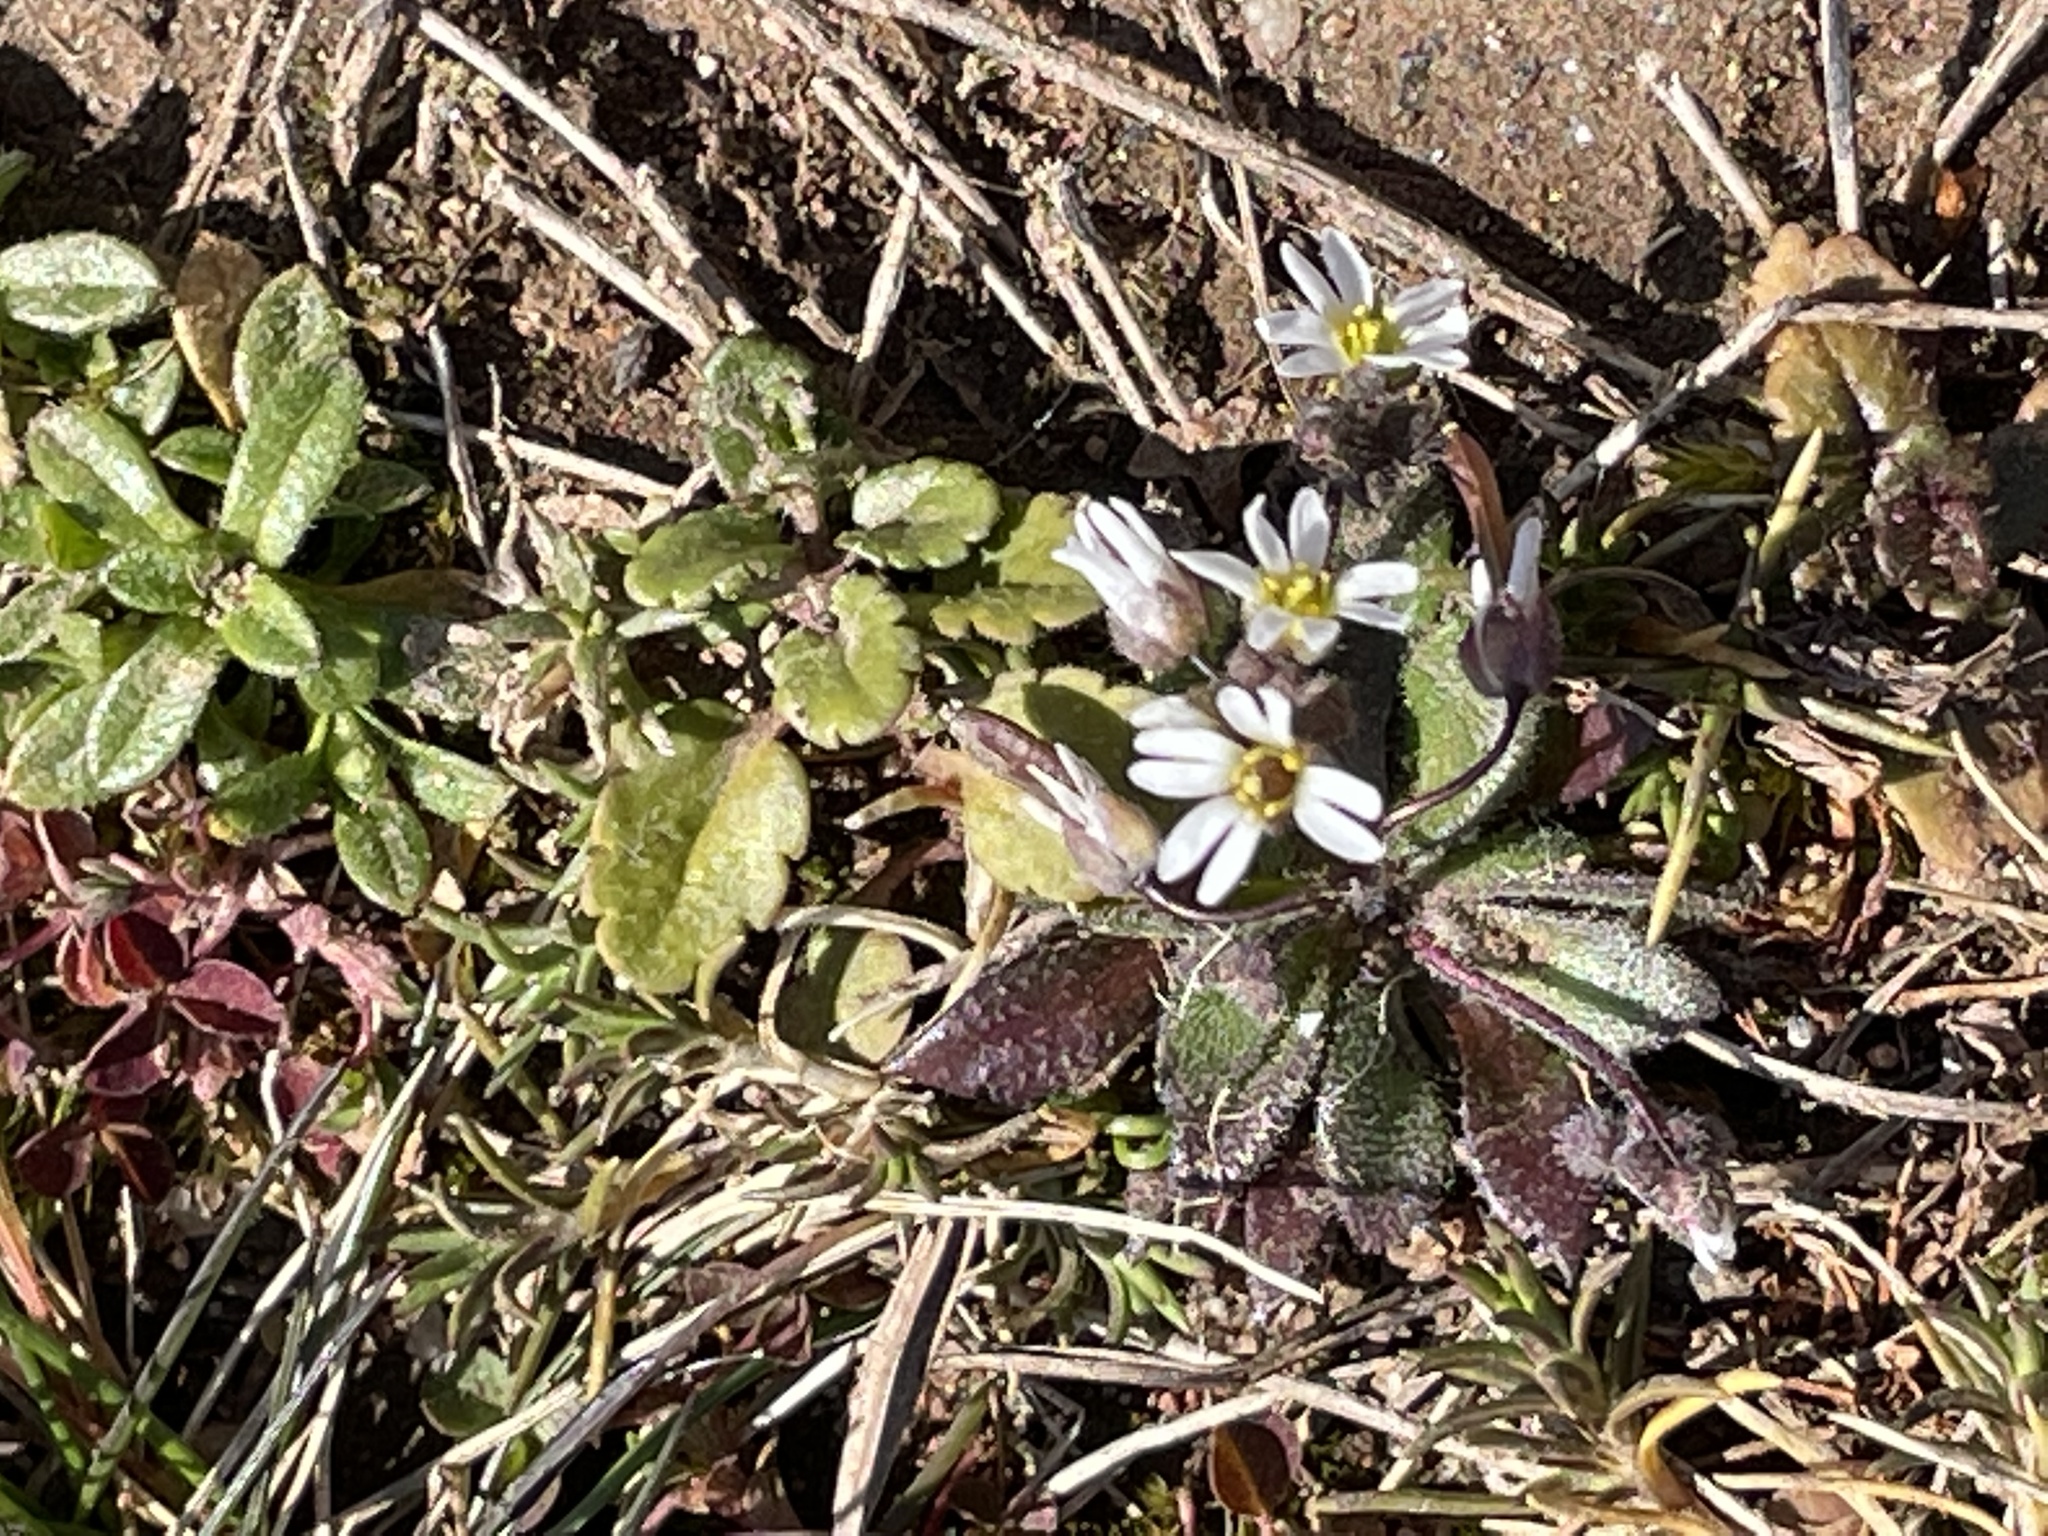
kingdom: Plantae
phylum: Tracheophyta
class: Magnoliopsida
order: Brassicales
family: Brassicaceae
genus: Draba
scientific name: Draba verna
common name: Spring draba
